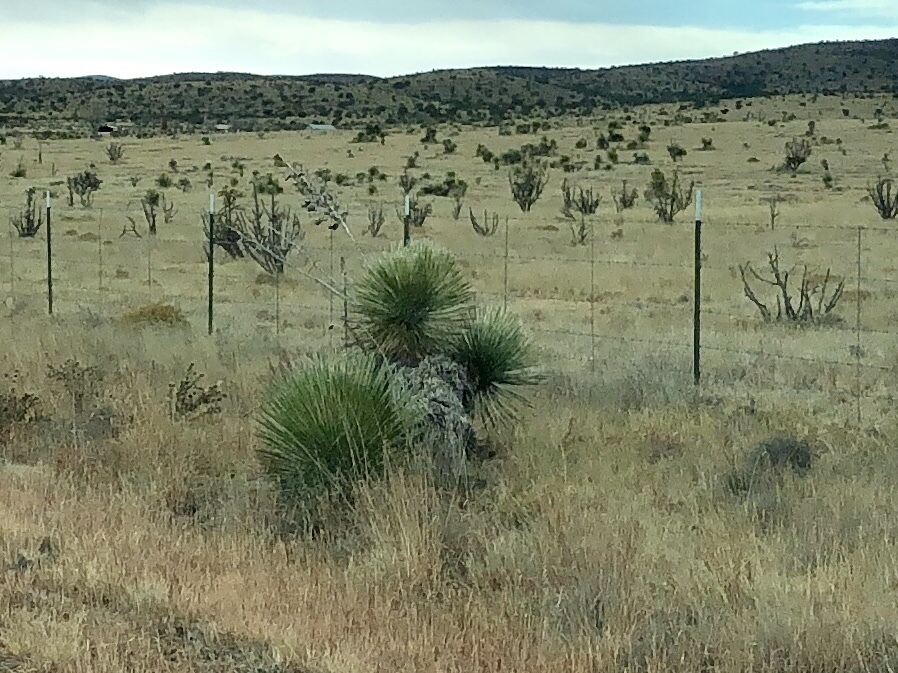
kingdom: Plantae
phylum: Tracheophyta
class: Liliopsida
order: Asparagales
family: Asparagaceae
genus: Yucca
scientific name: Yucca elata
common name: Palmella
